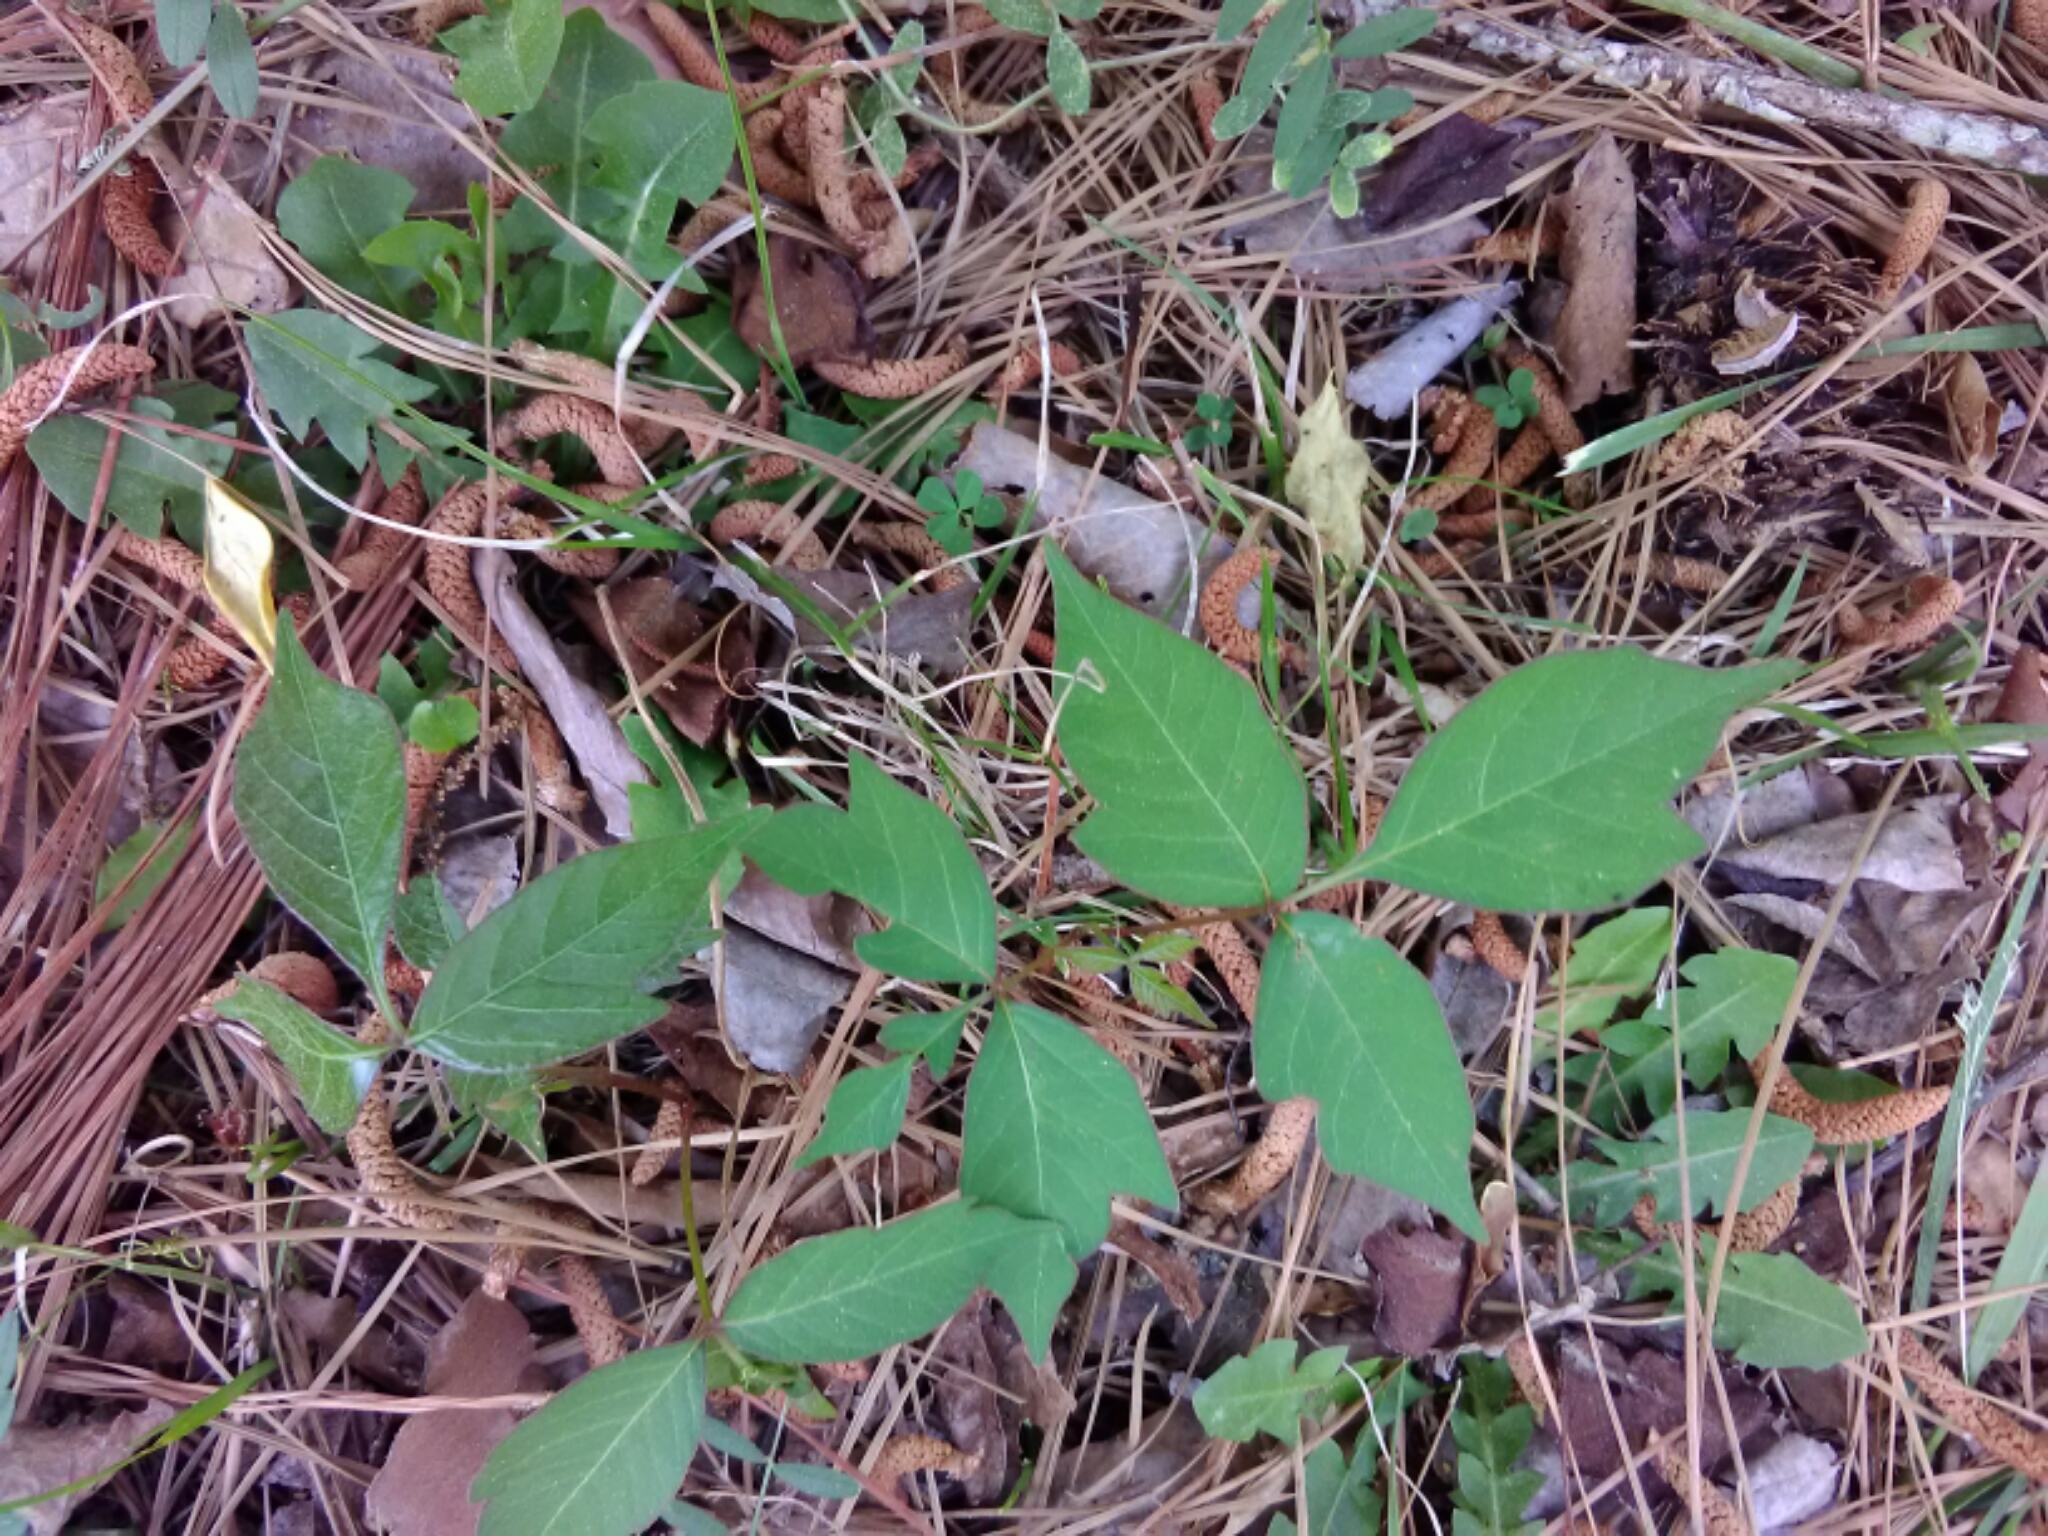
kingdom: Plantae
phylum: Tracheophyta
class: Magnoliopsida
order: Sapindales
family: Anacardiaceae
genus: Toxicodendron
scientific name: Toxicodendron radicans
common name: Poison ivy
